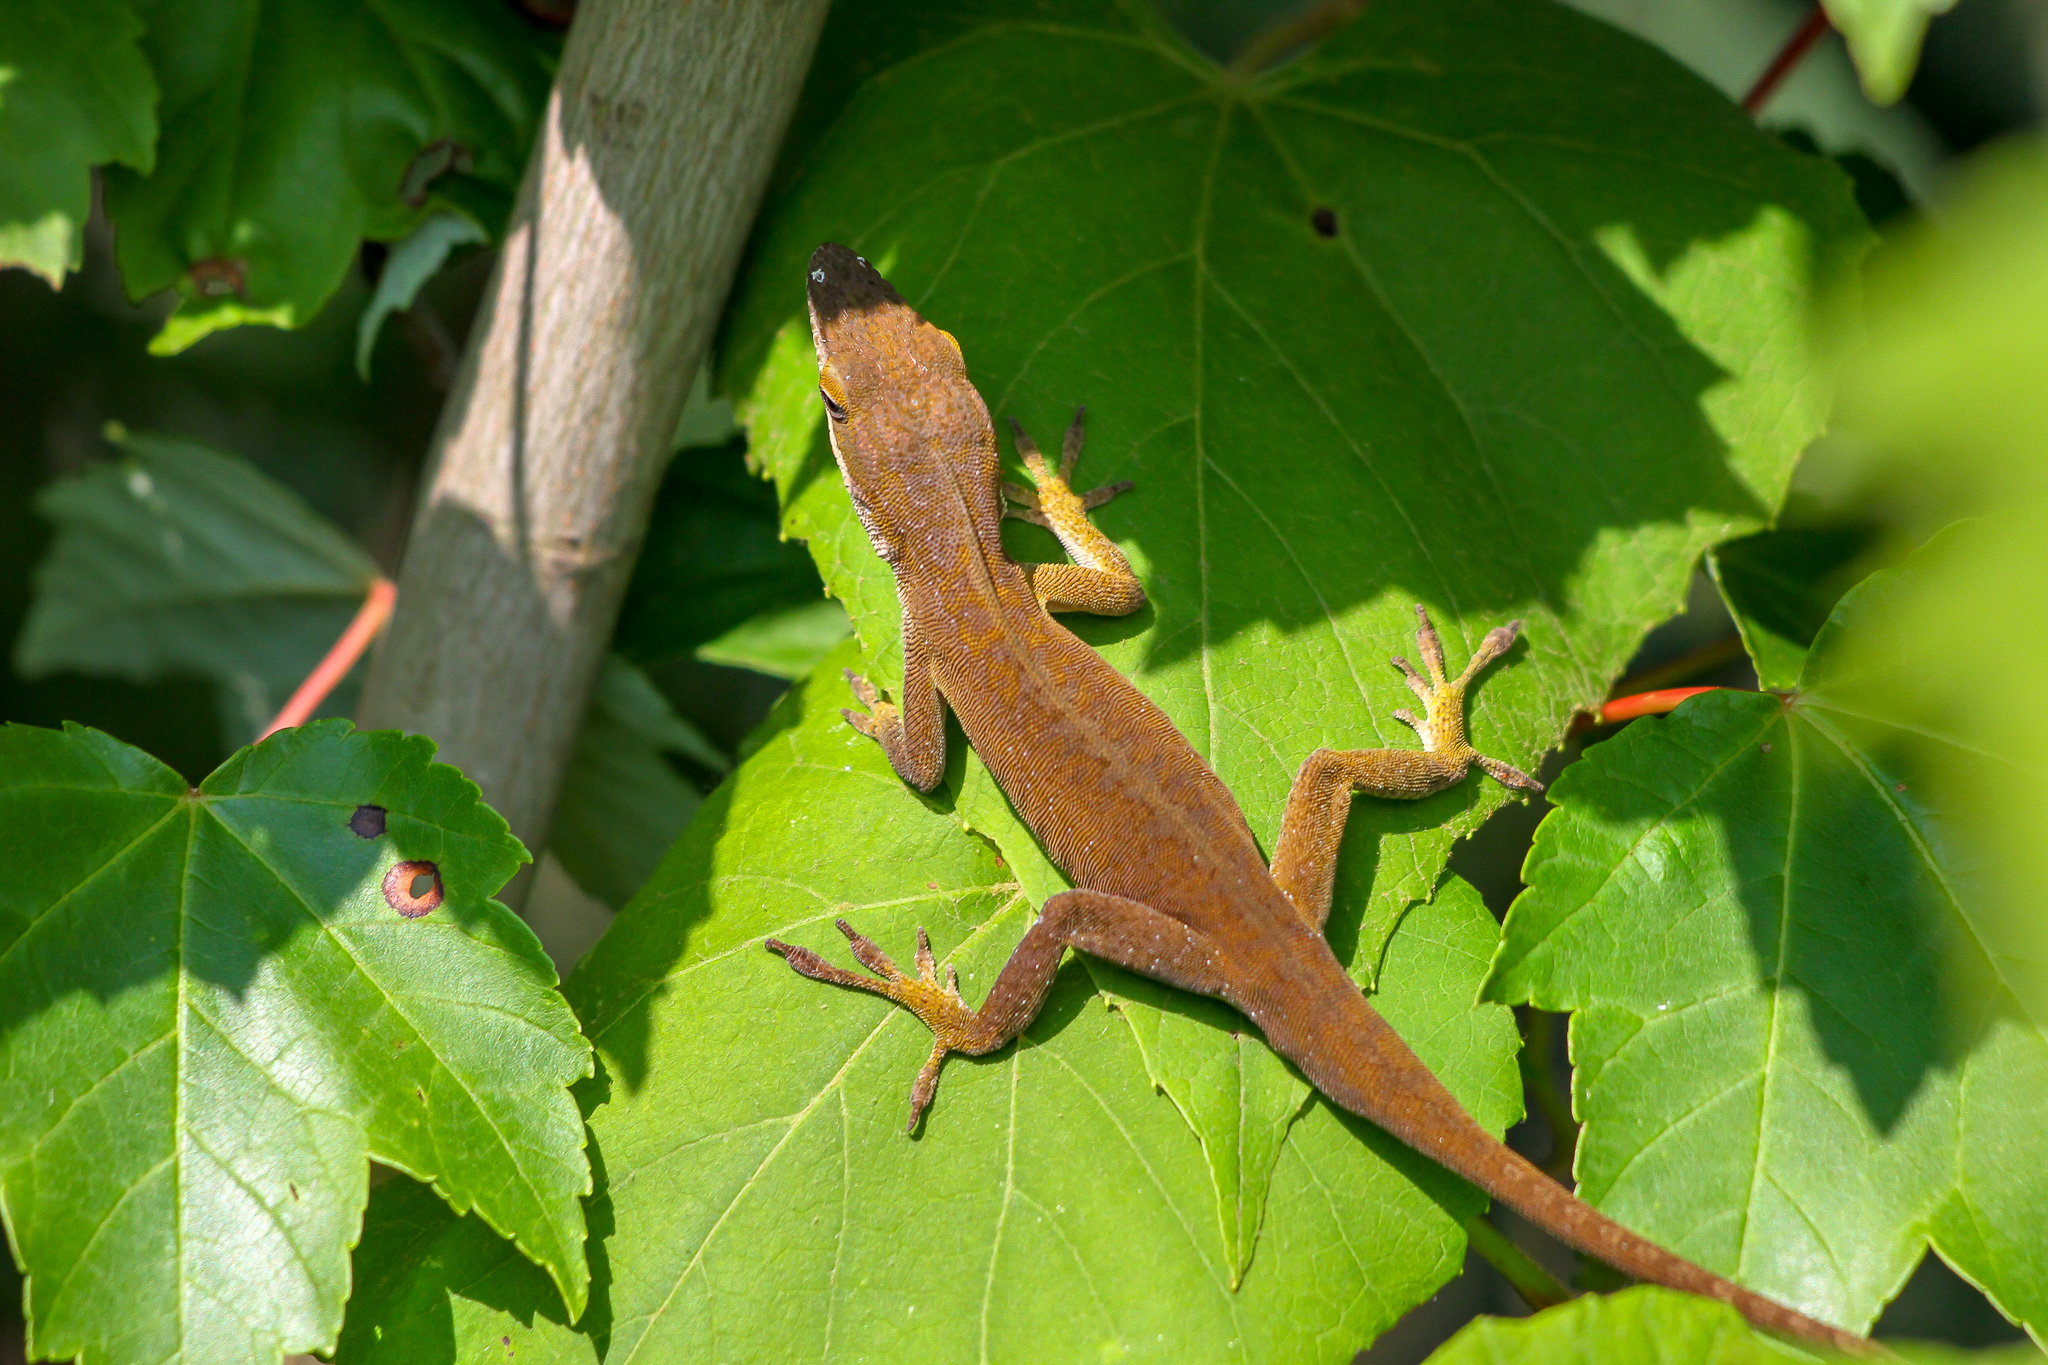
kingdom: Animalia
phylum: Chordata
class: Squamata
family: Dactyloidae
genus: Anolis
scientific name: Anolis carolinensis
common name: Green anole
